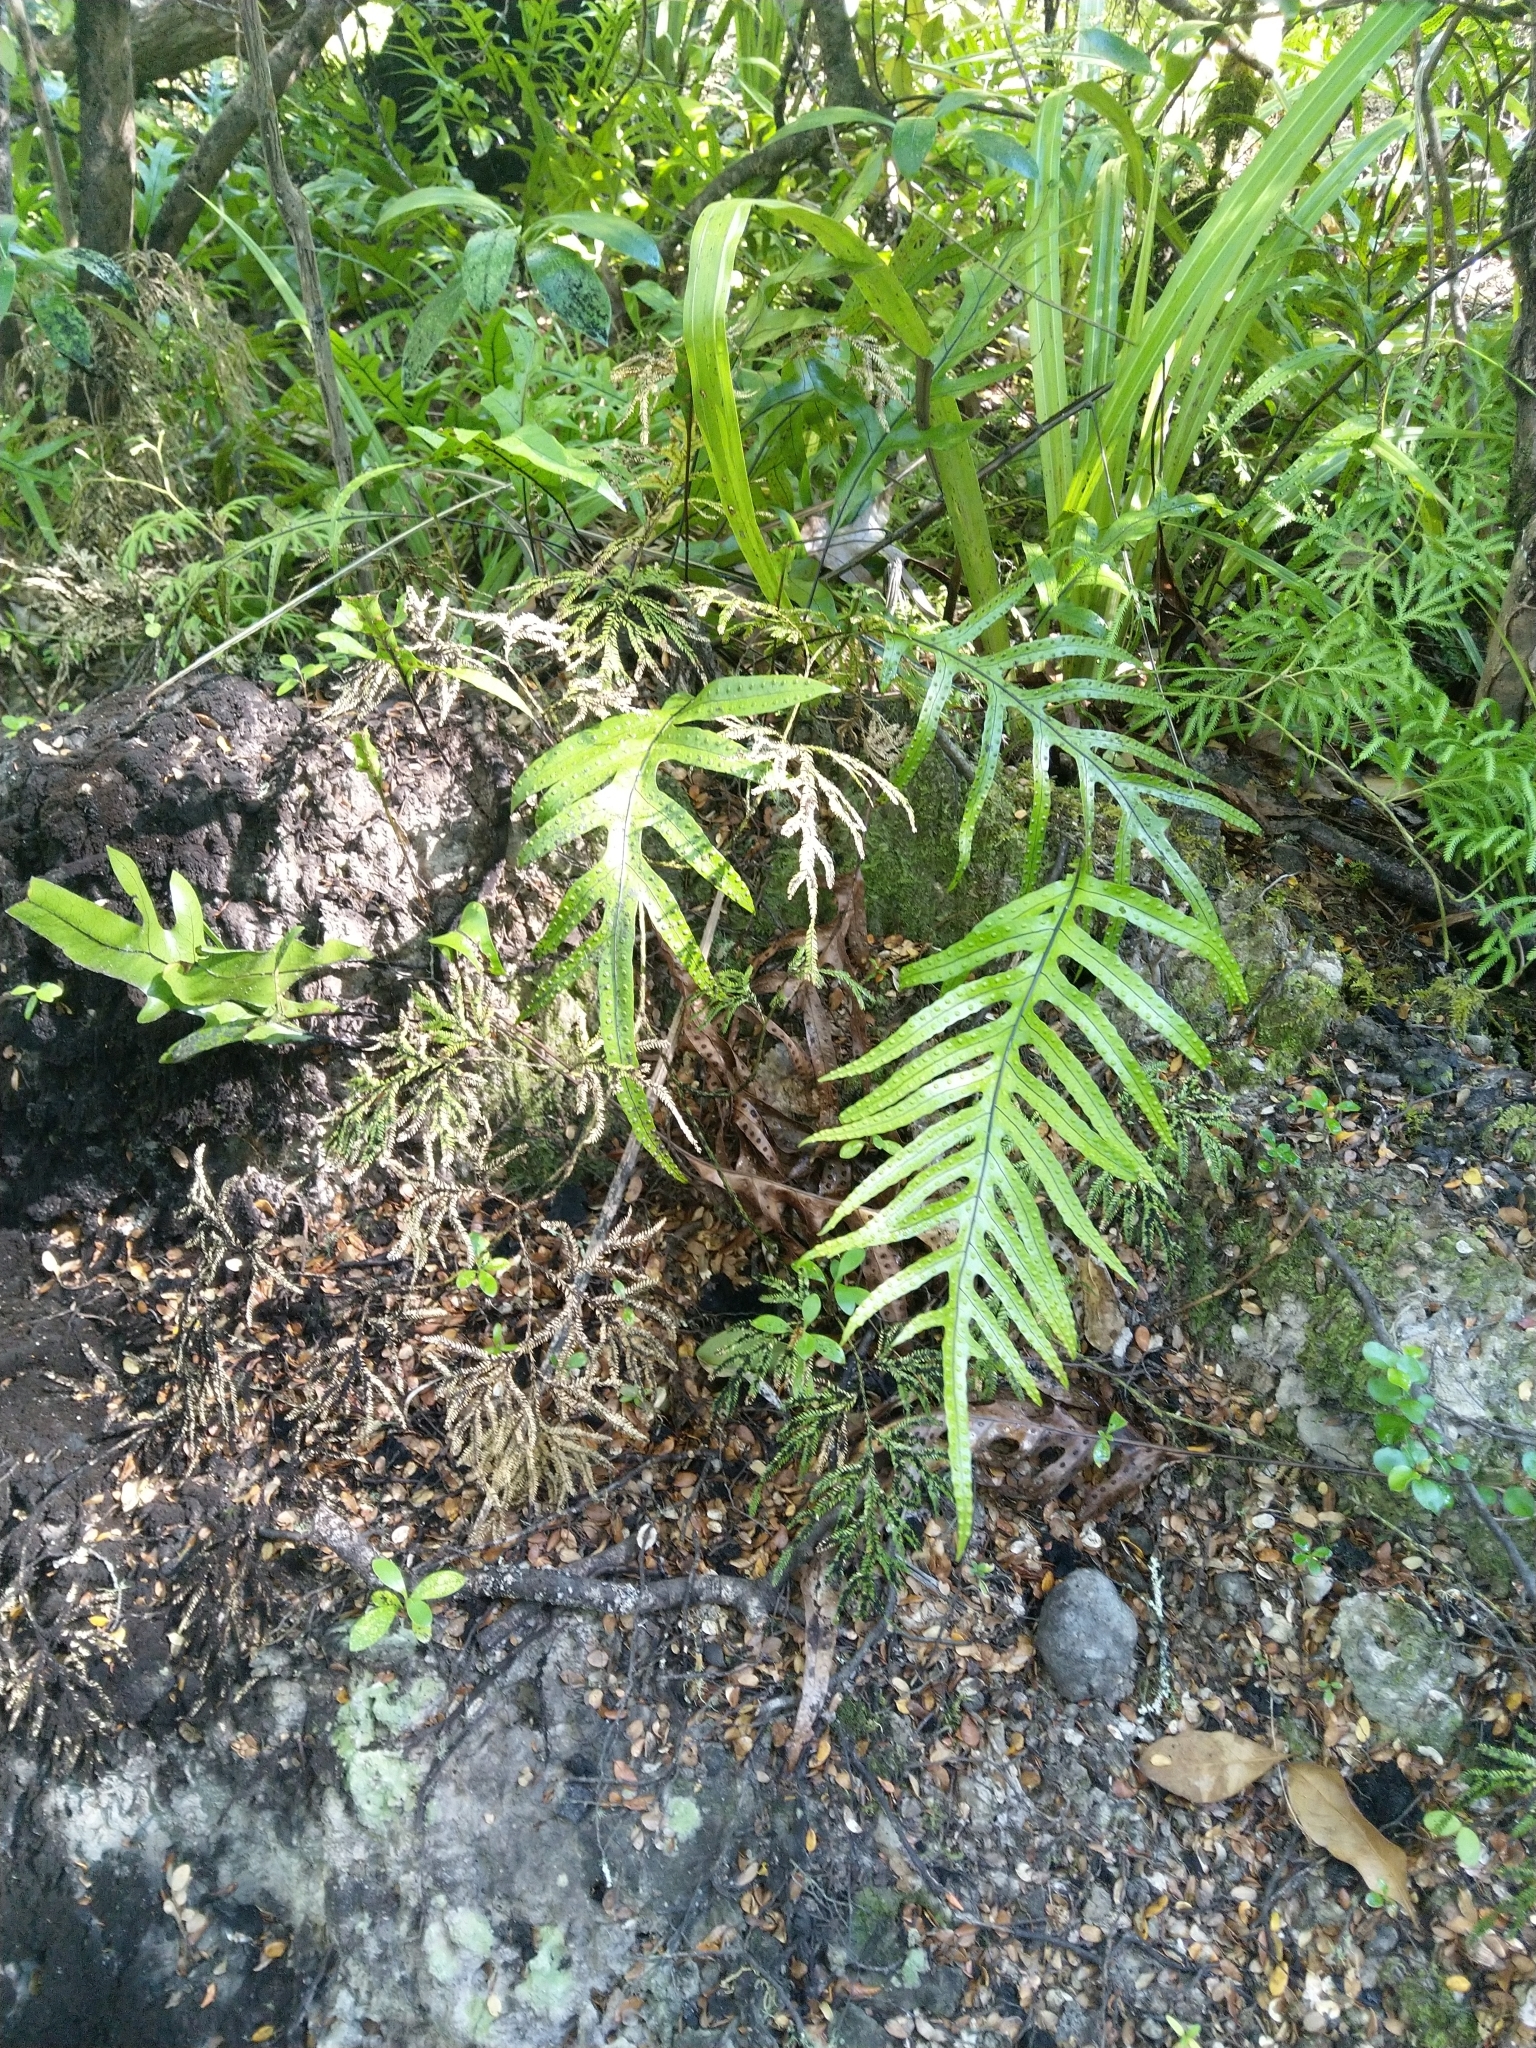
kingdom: Plantae
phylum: Tracheophyta
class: Polypodiopsida
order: Polypodiales
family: Polypodiaceae
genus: Lecanopteris
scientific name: Lecanopteris pustulata
